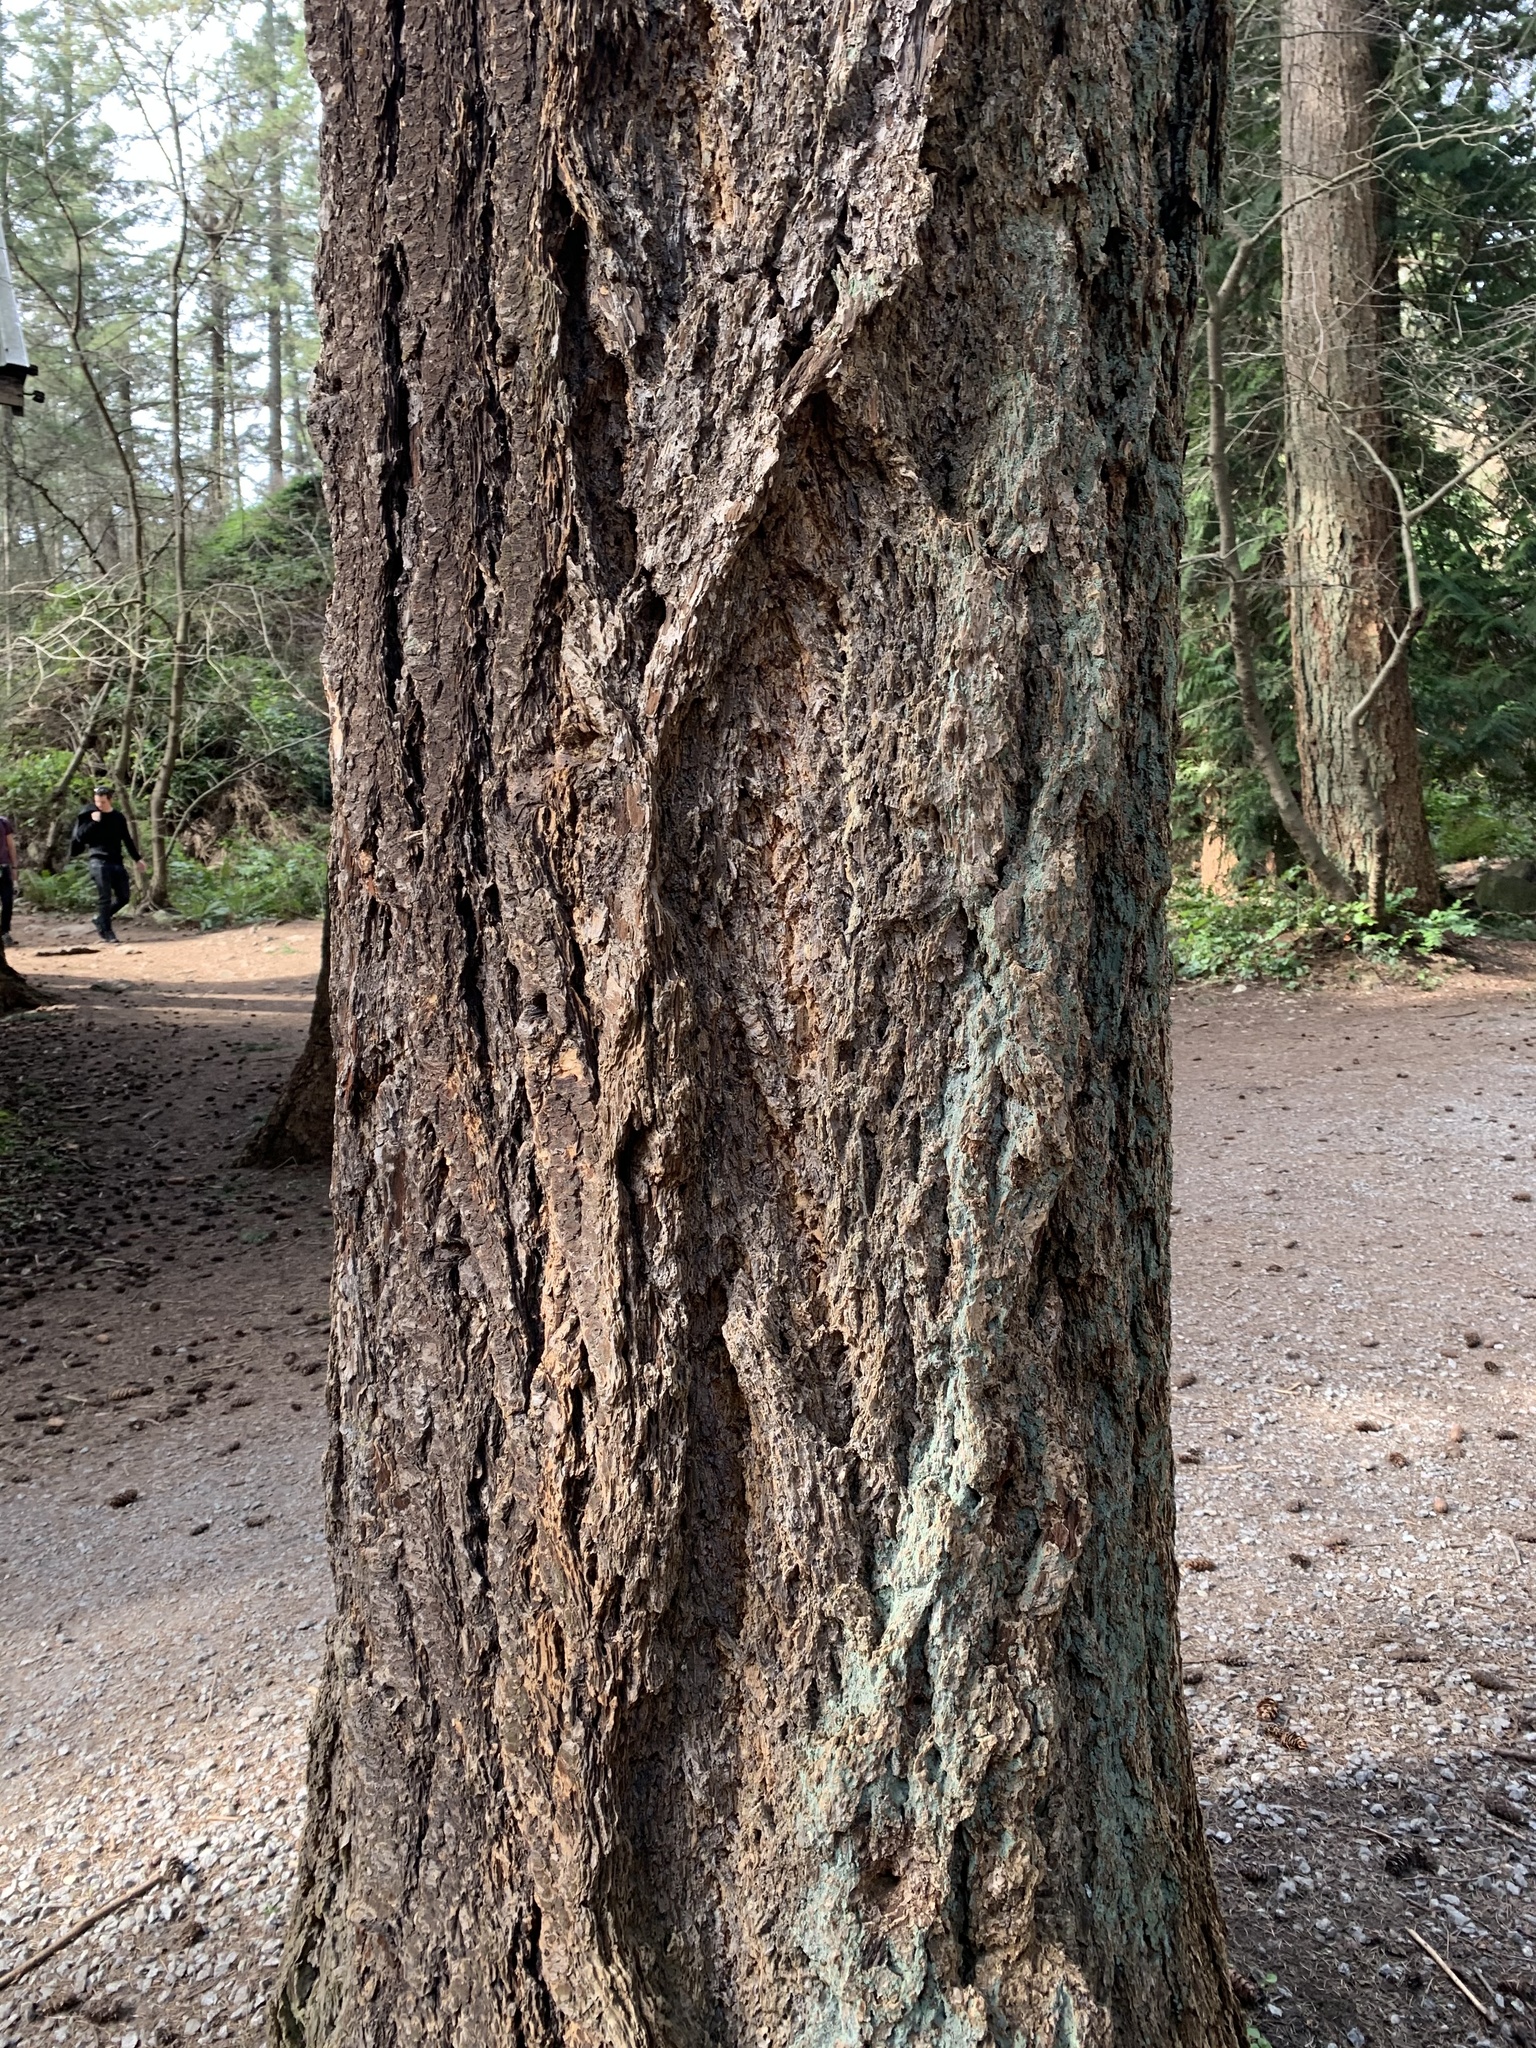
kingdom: Plantae
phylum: Tracheophyta
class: Pinopsida
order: Pinales
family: Pinaceae
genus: Pseudotsuga
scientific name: Pseudotsuga menziesii
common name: Douglas fir
